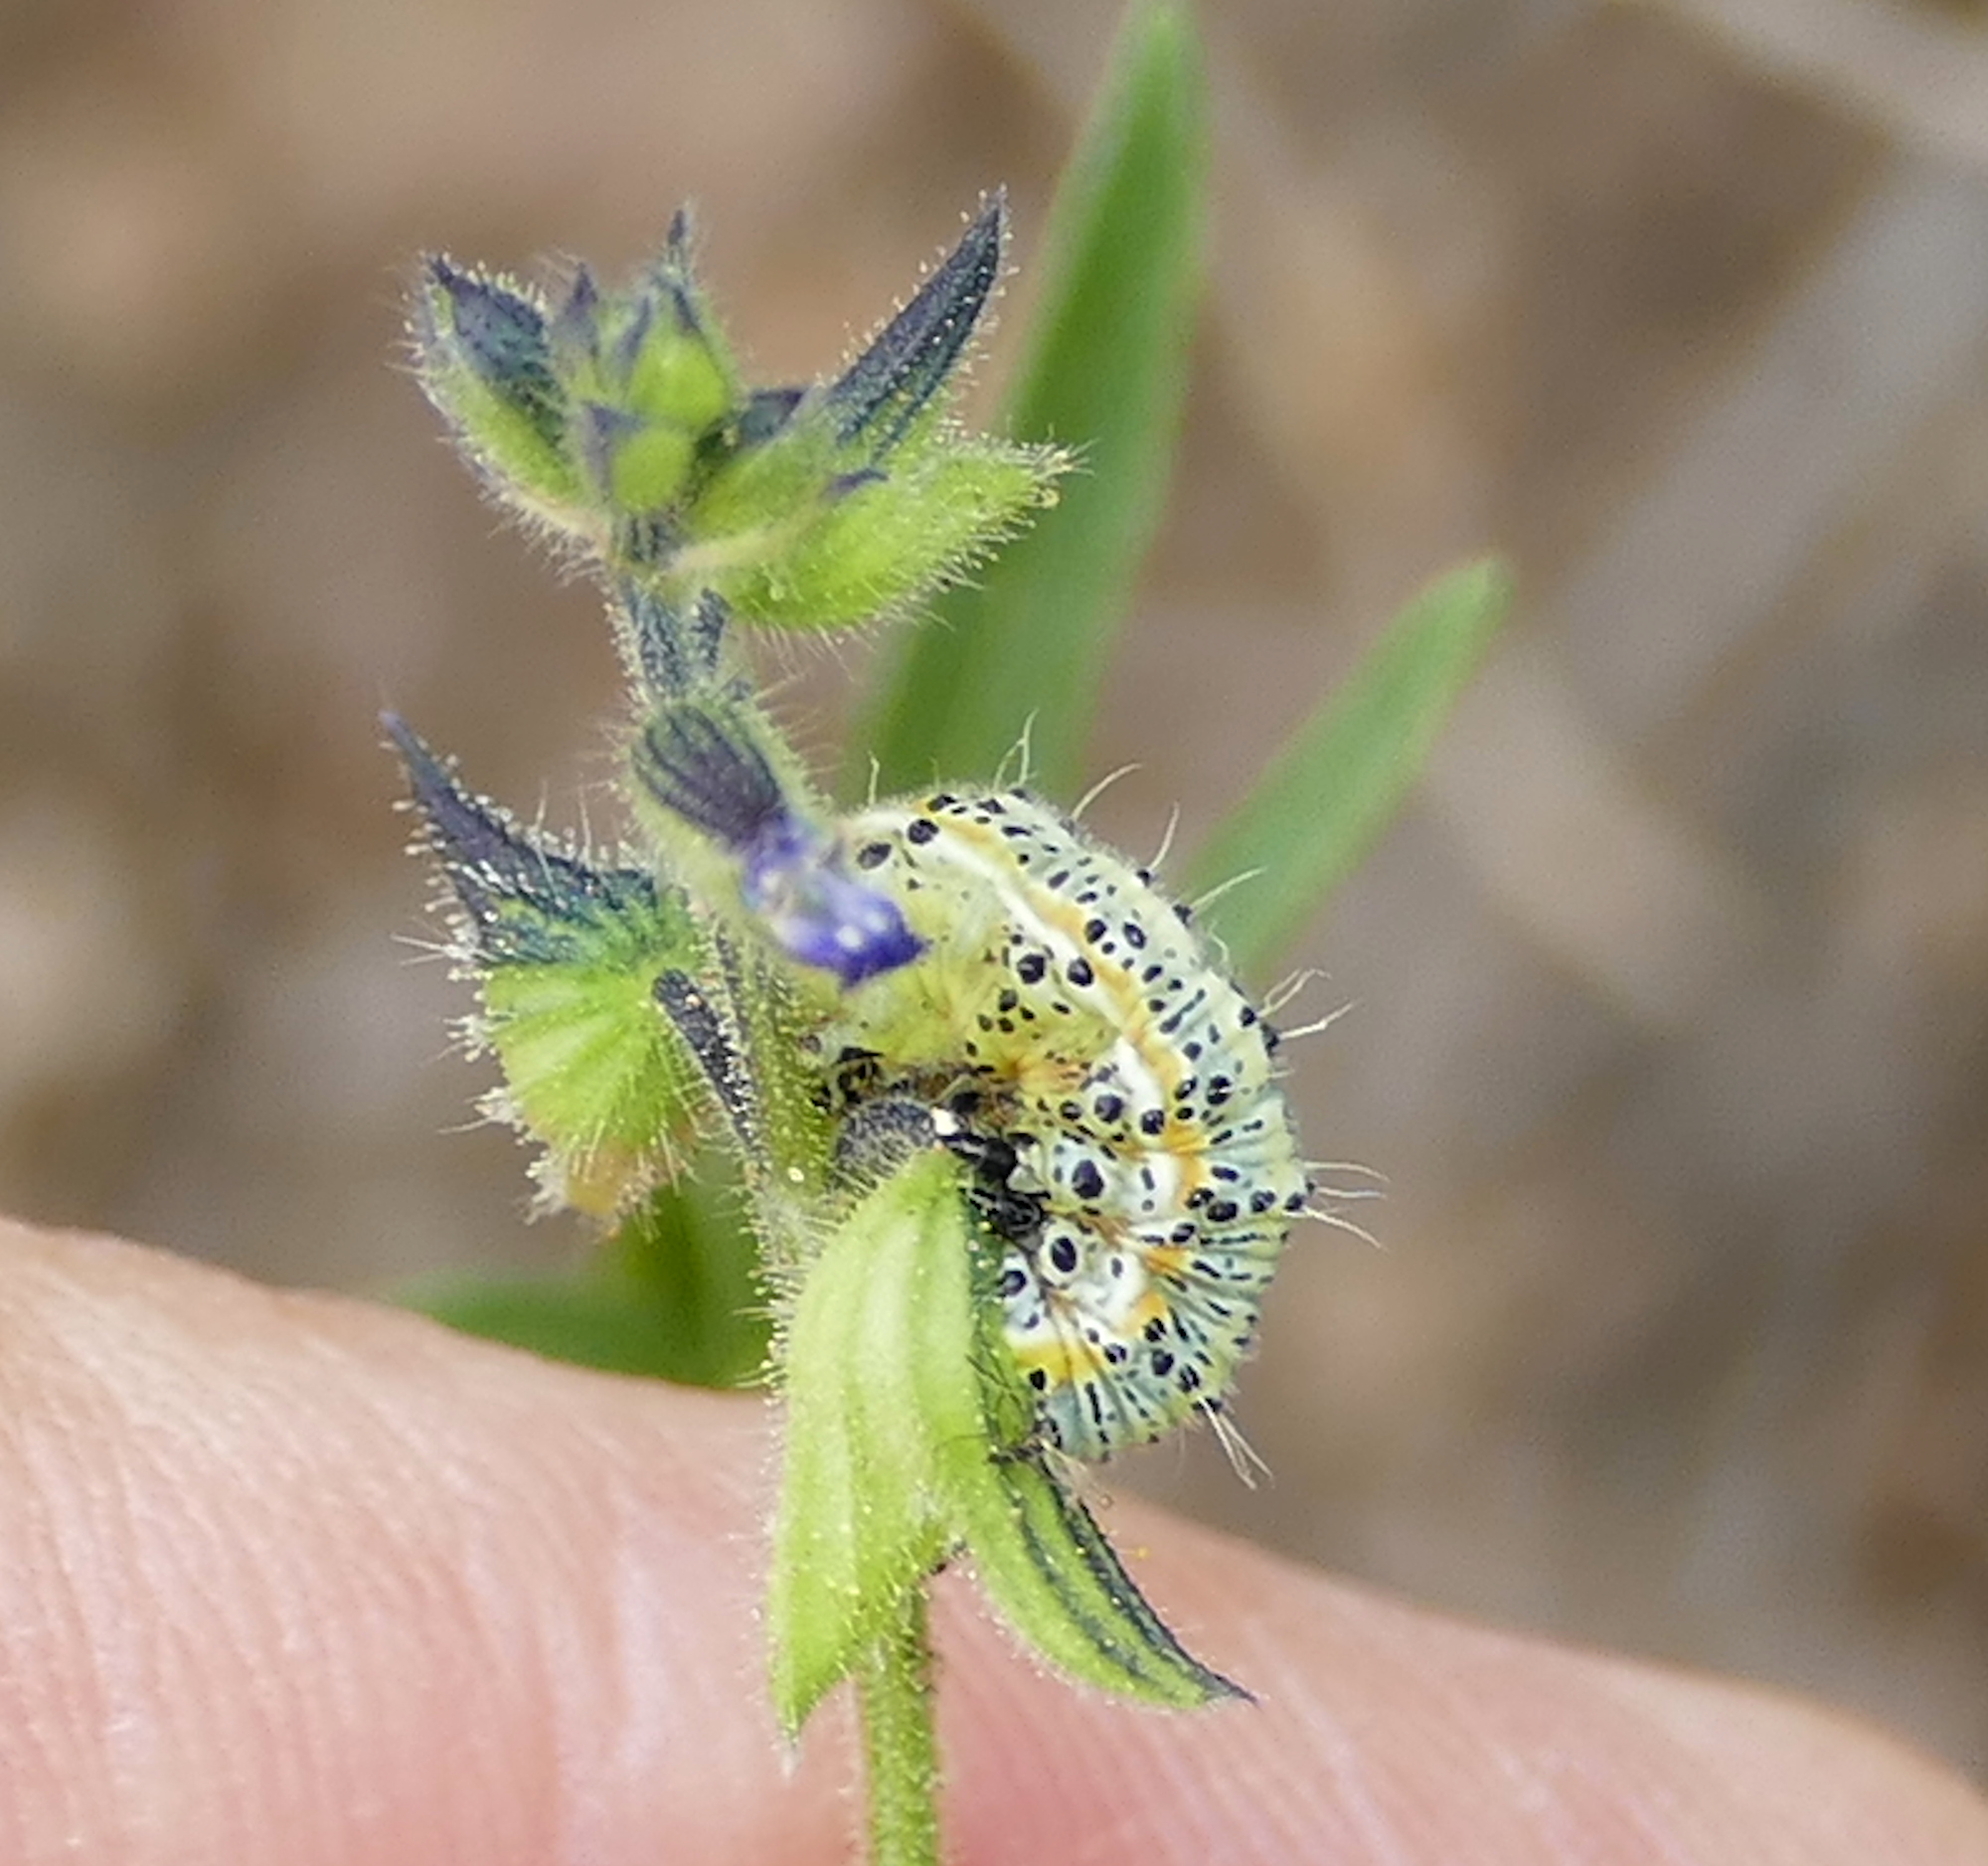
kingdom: Animalia
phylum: Arthropoda
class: Insecta
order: Lepidoptera
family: Noctuidae
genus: Alypiodes
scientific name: Alypiodes bimaculata
